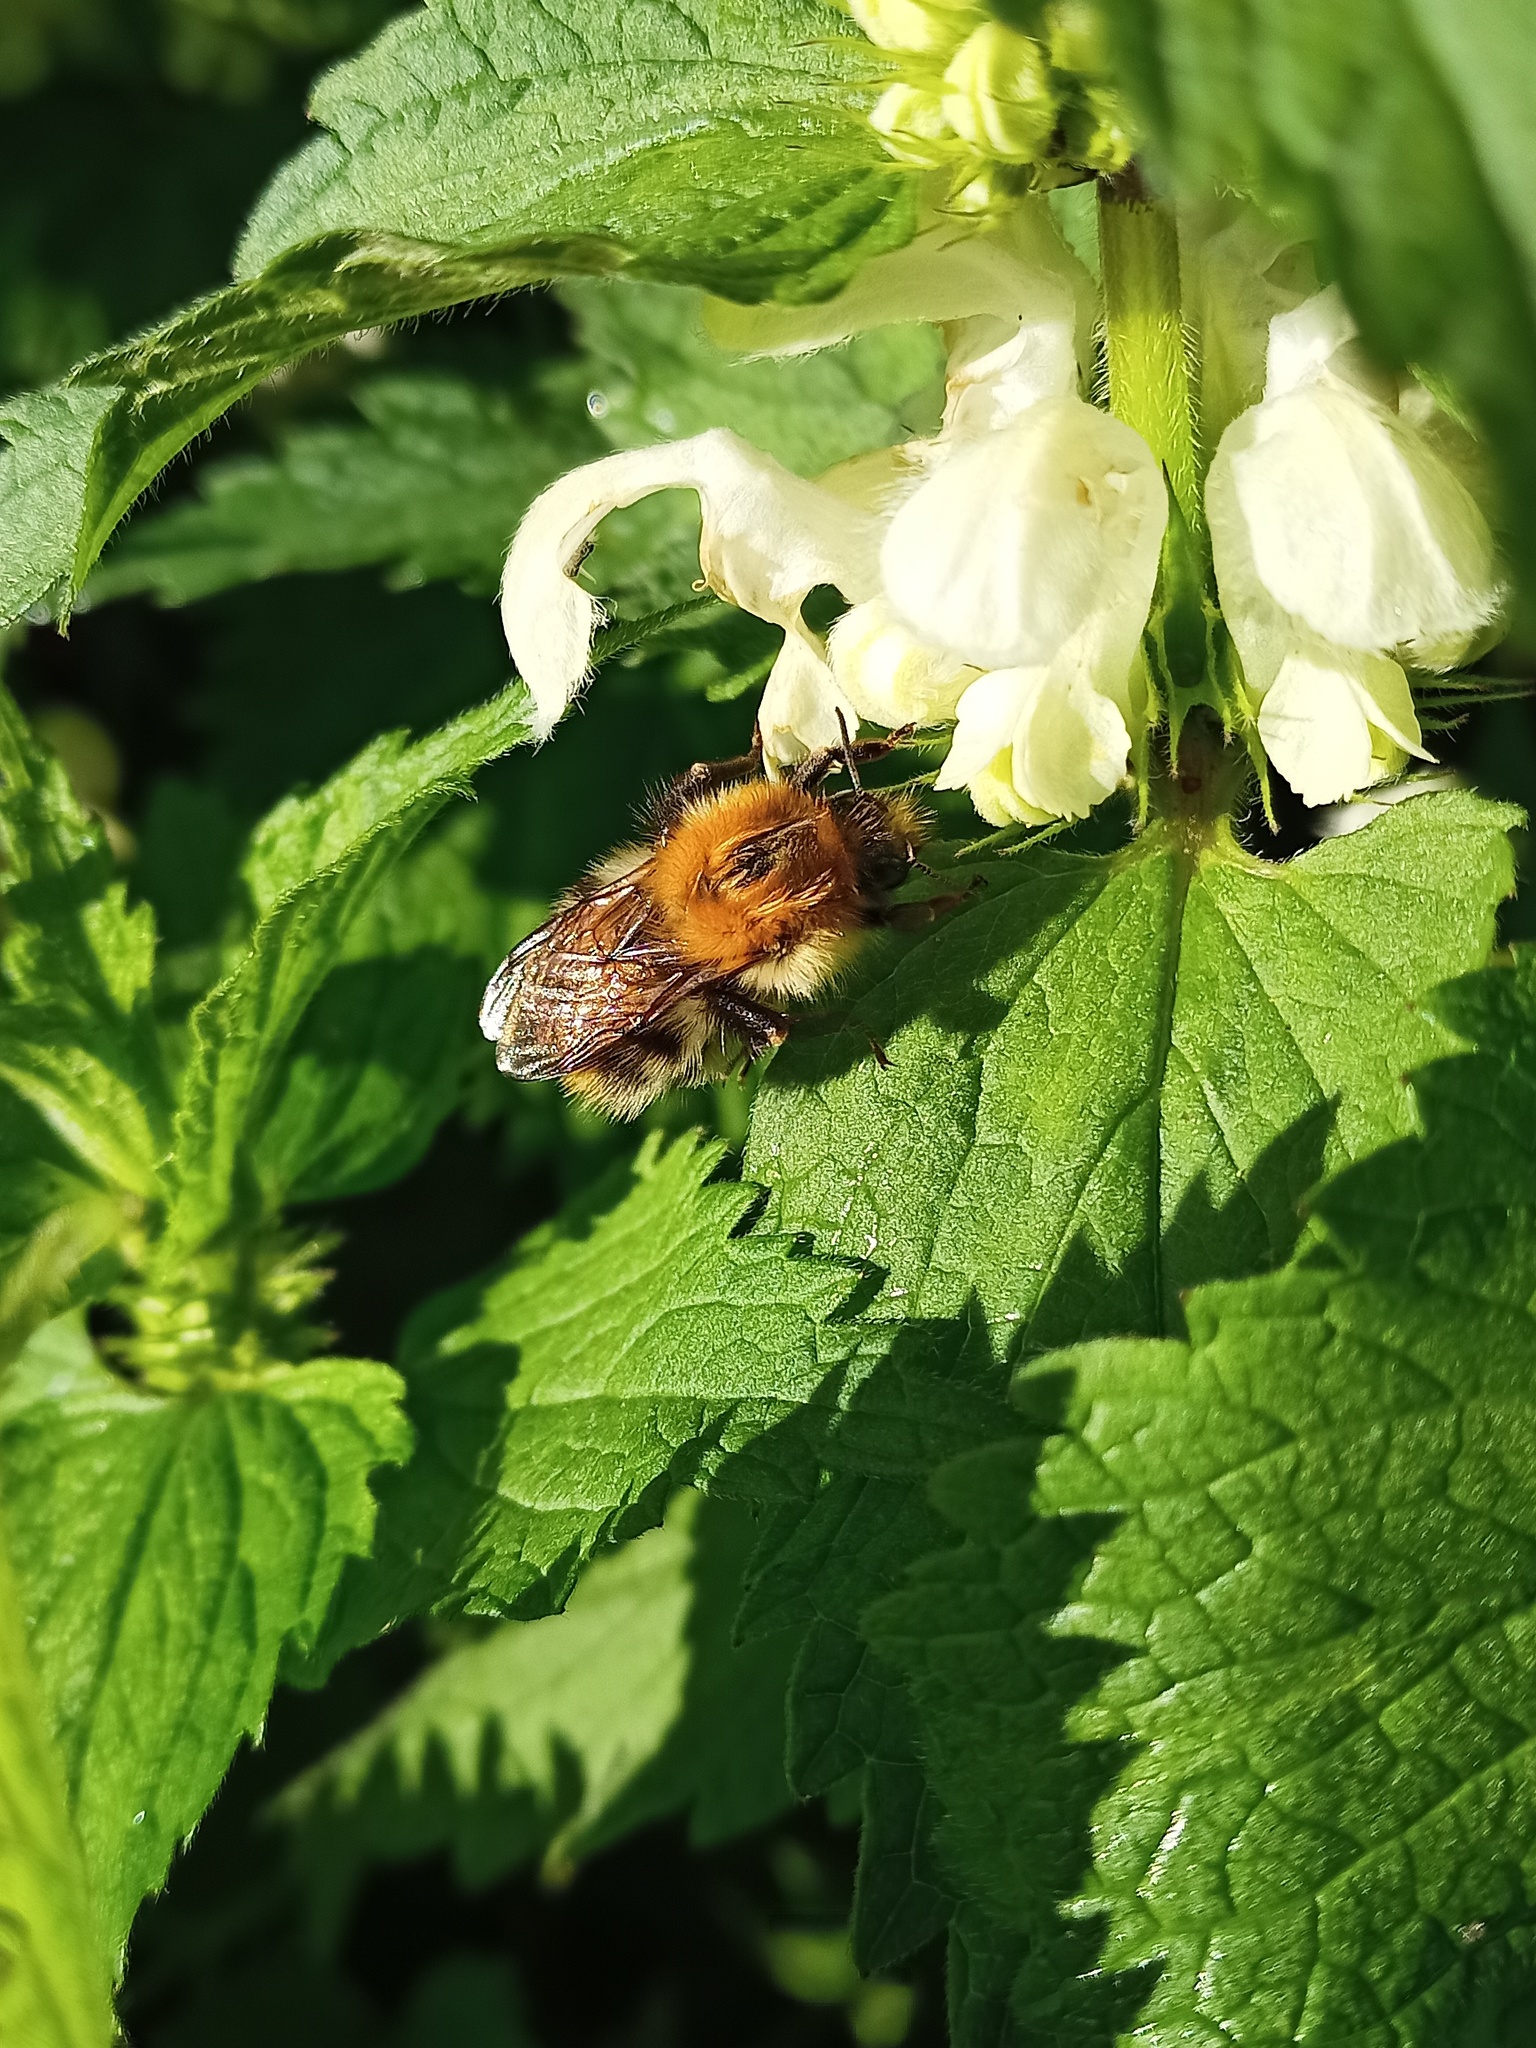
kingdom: Animalia
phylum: Arthropoda
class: Insecta
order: Hymenoptera
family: Apidae
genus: Bombus
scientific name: Bombus pascuorum
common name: Common carder bee
